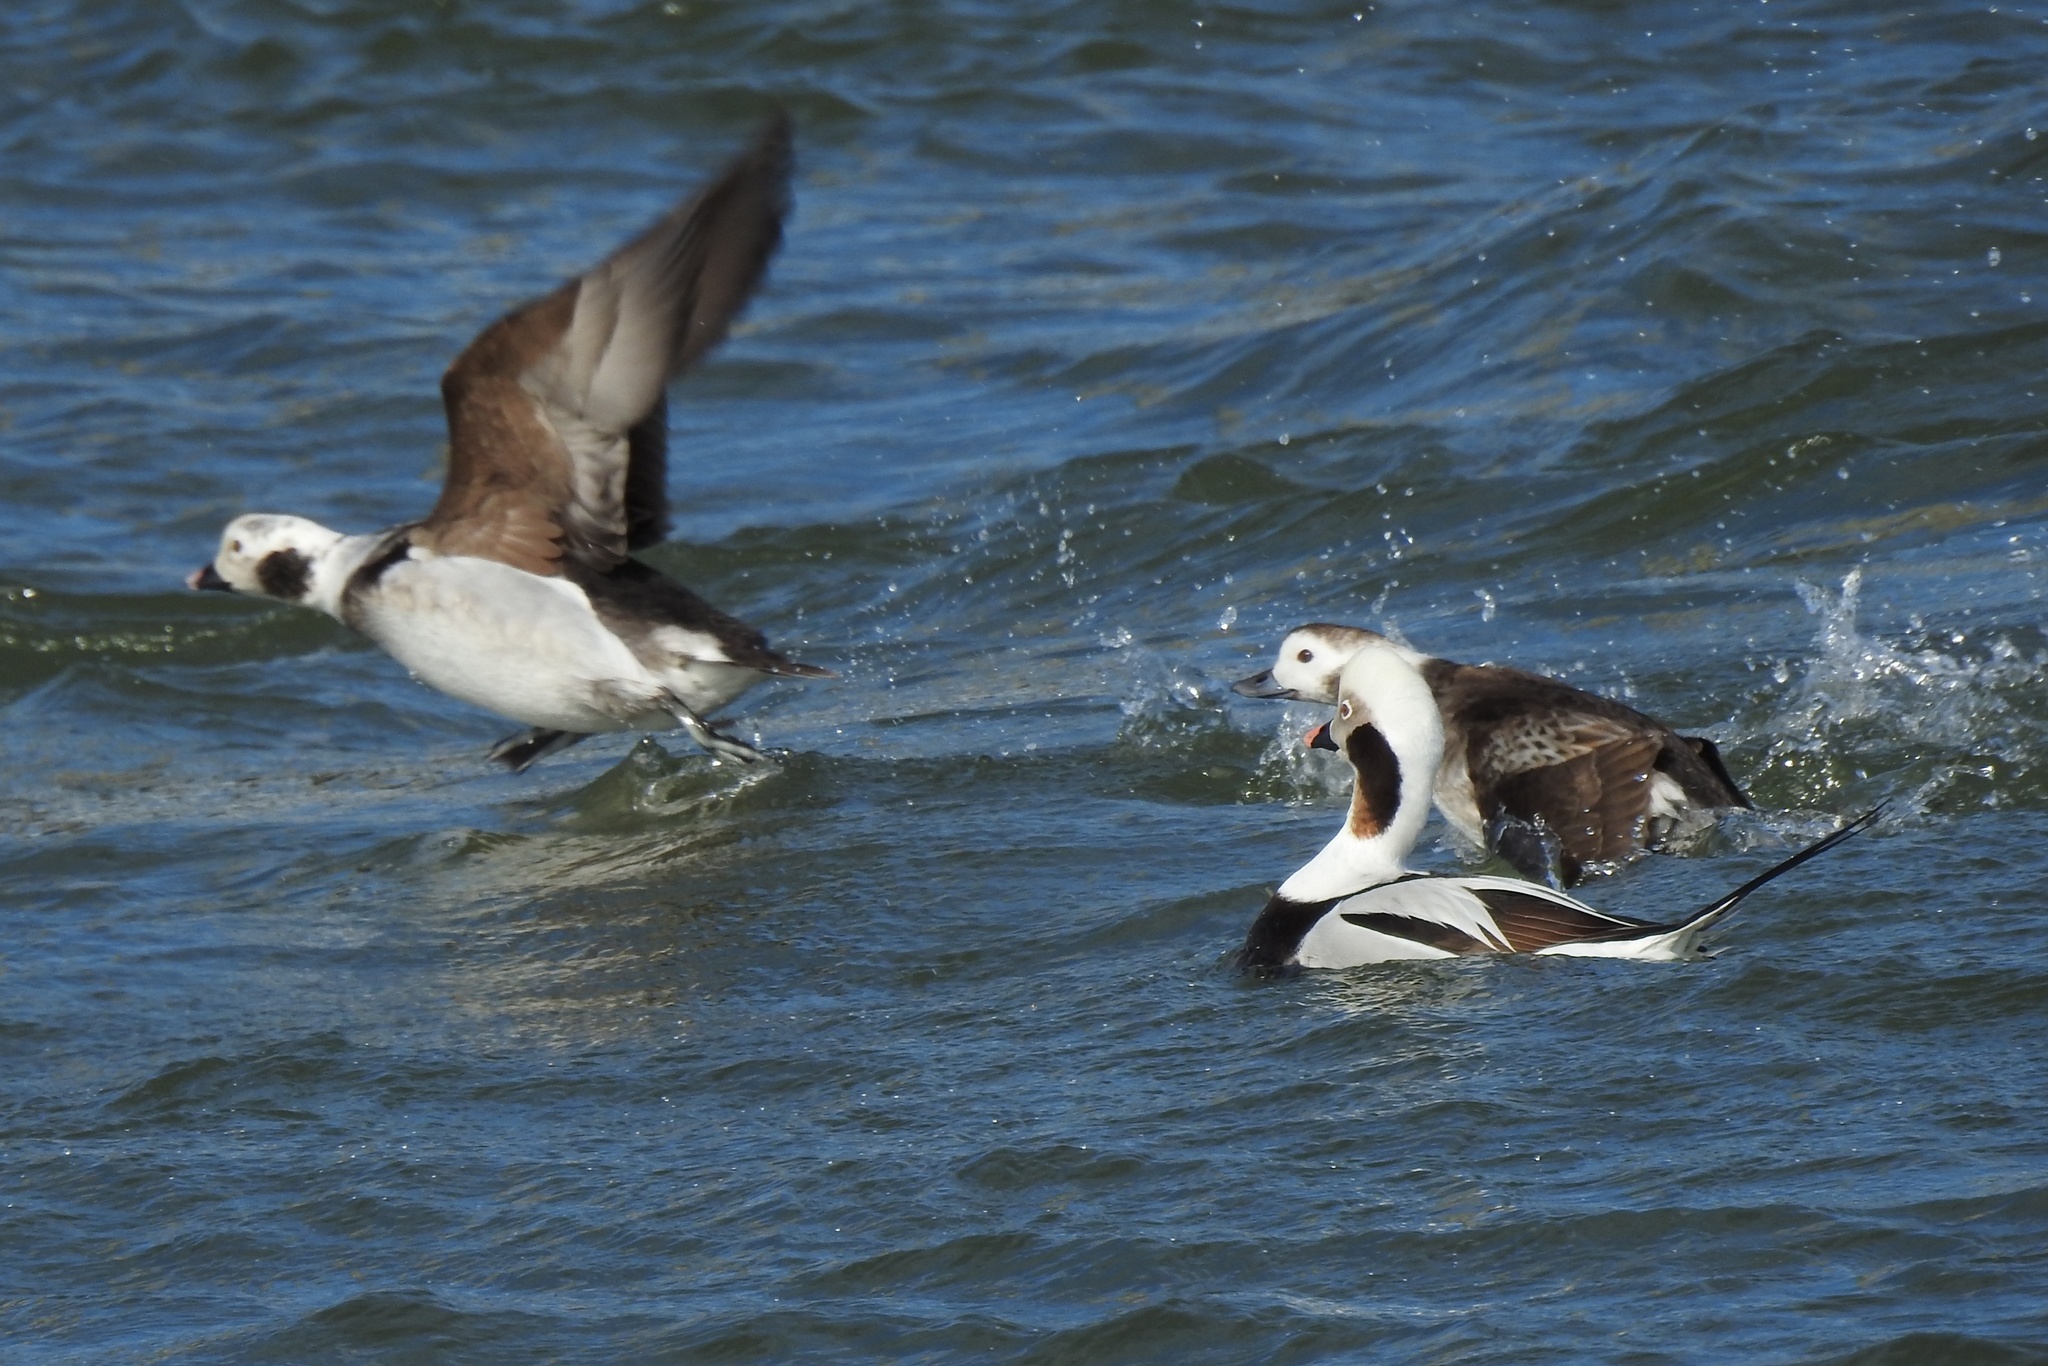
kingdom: Animalia
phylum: Chordata
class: Aves
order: Anseriformes
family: Anatidae
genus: Clangula
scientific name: Clangula hyemalis
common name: Long-tailed duck
